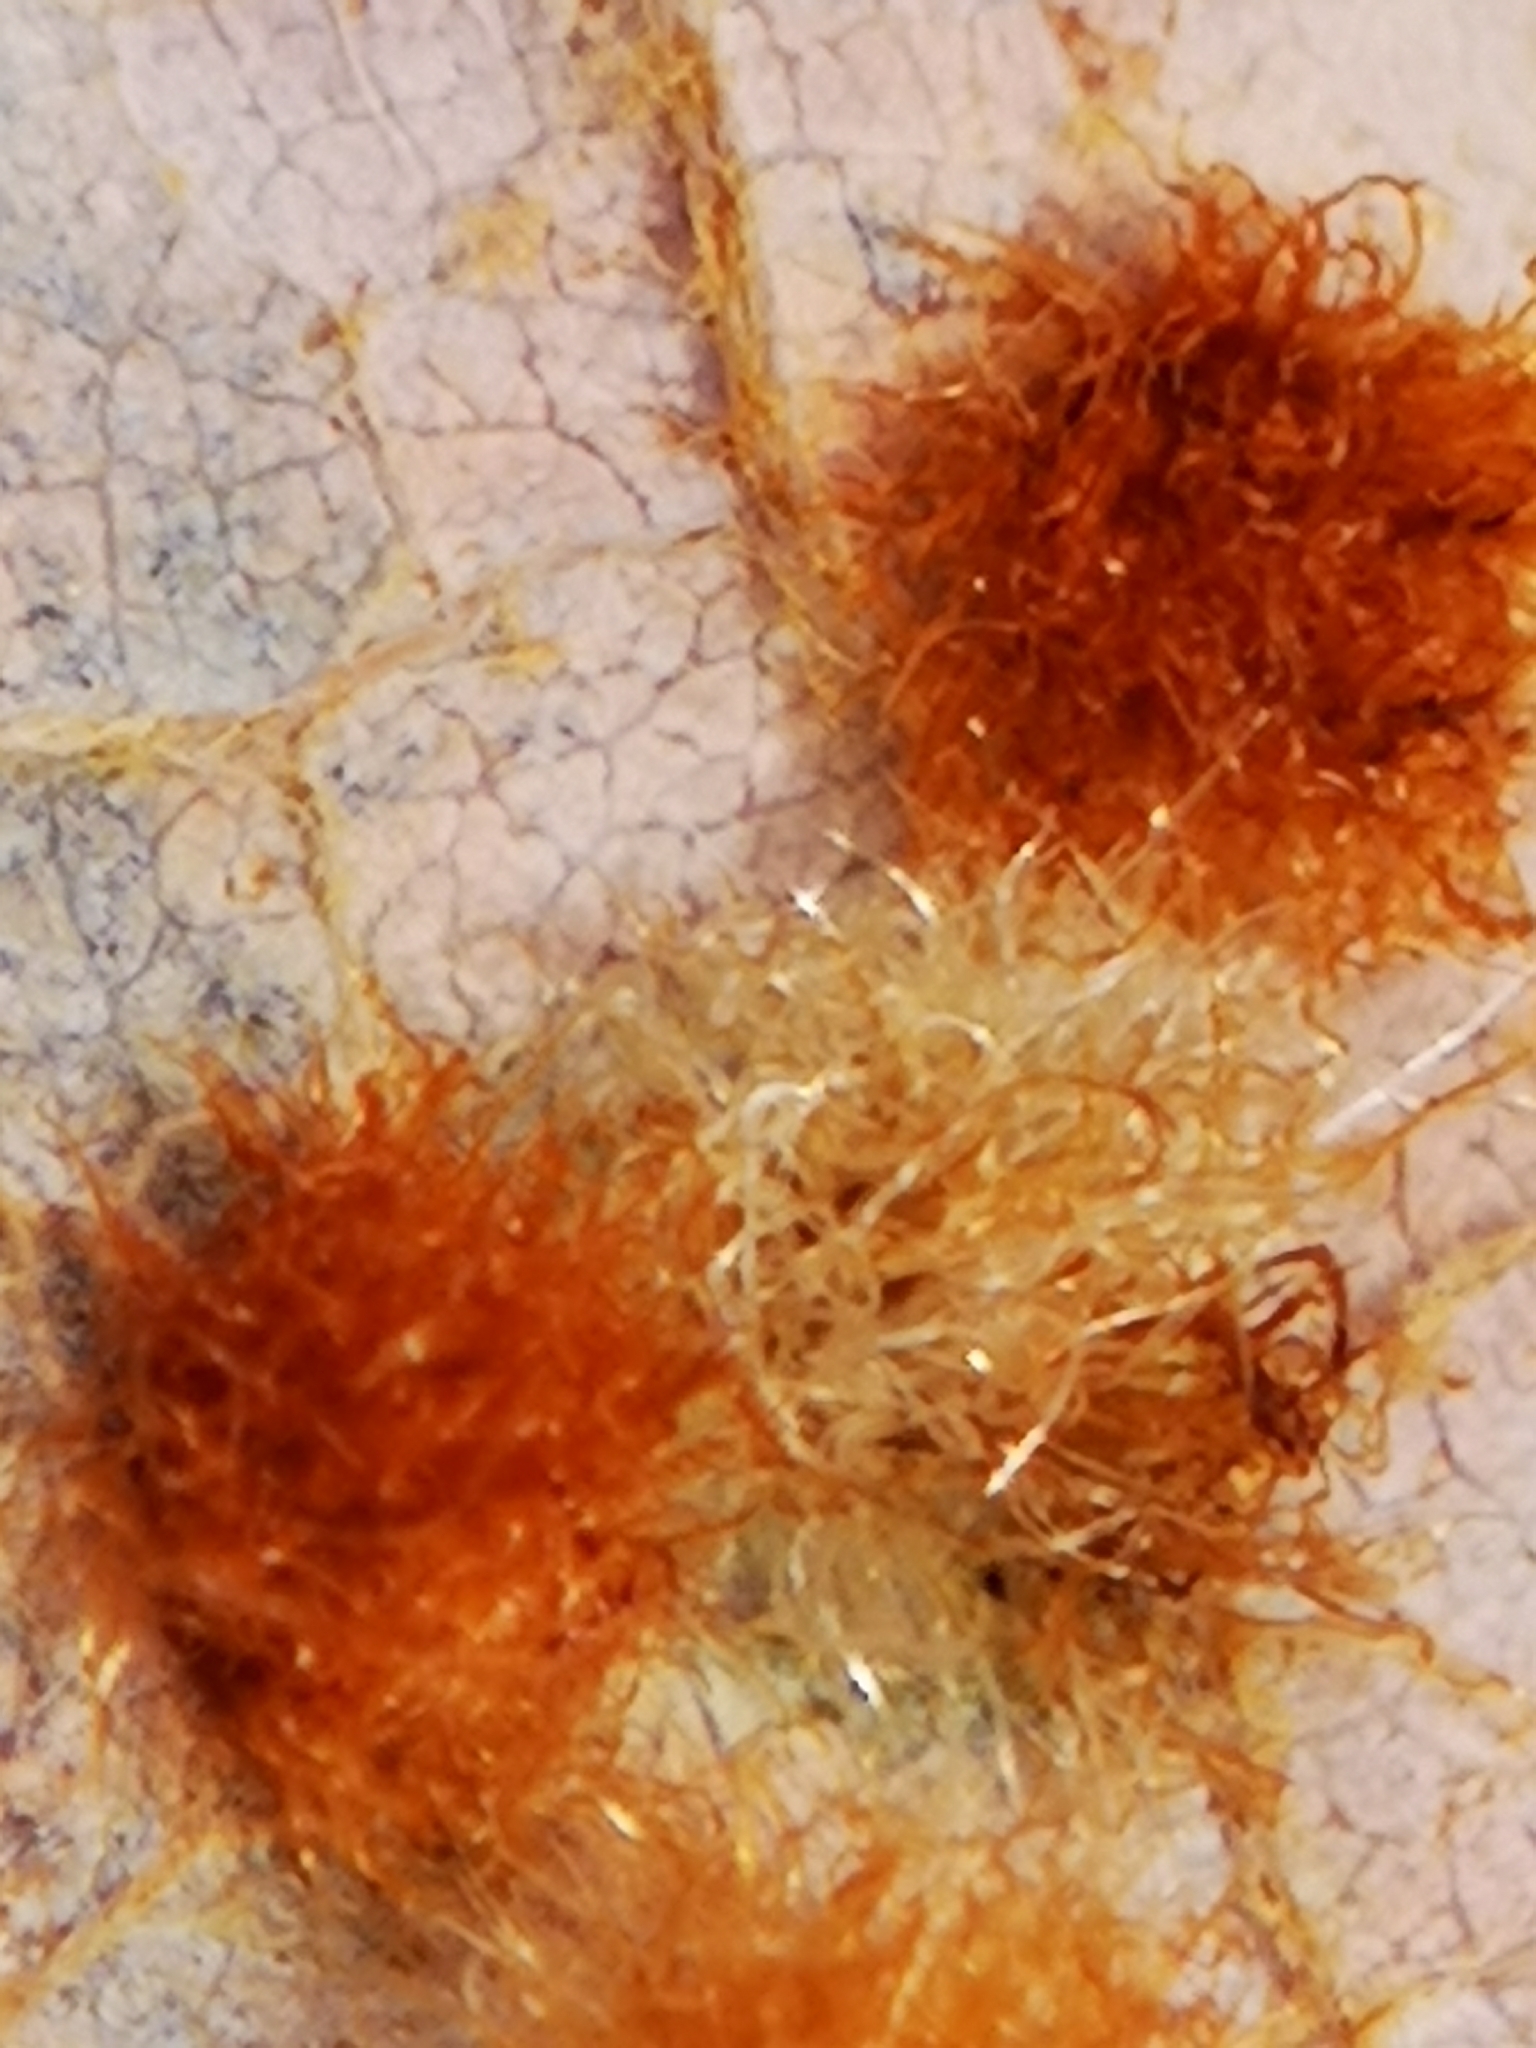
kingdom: Animalia
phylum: Arthropoda
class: Insecta
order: Hymenoptera
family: Cynipidae
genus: Neuroterus
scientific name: Neuroterus quercusverrucarum
